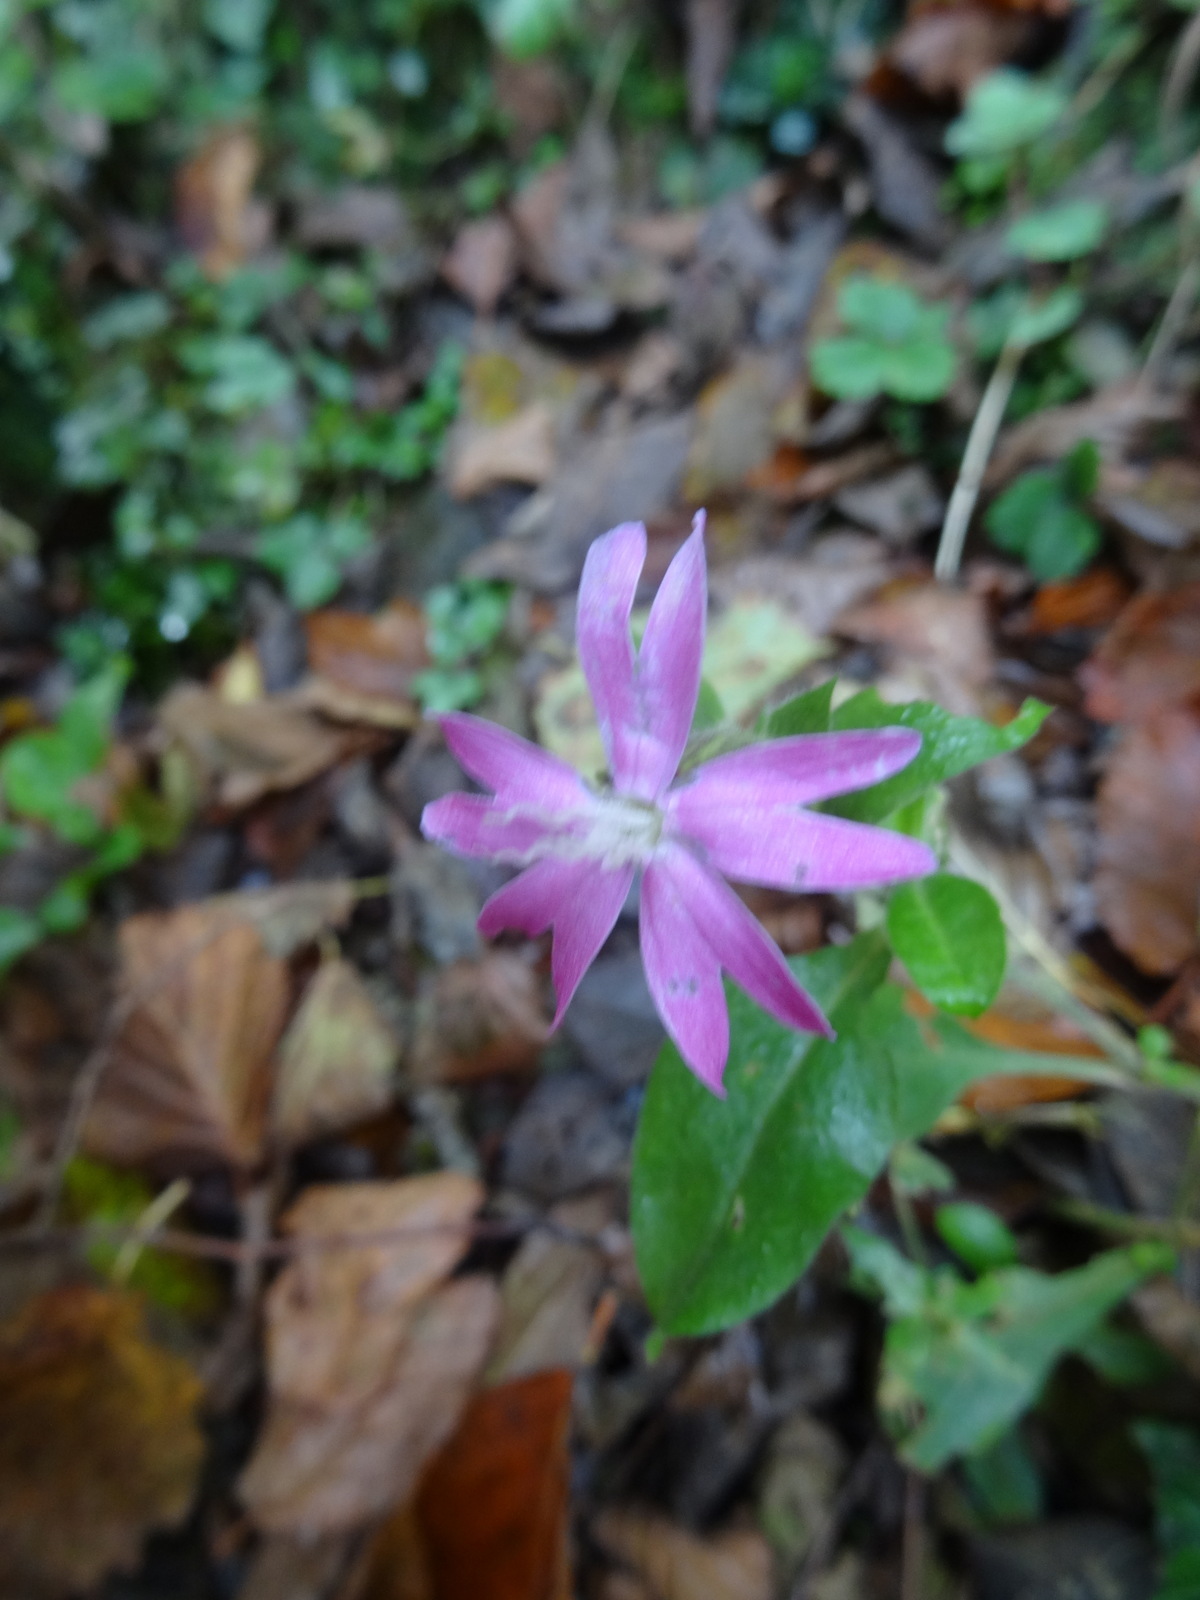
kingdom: Plantae
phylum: Tracheophyta
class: Magnoliopsida
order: Caryophyllales
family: Caryophyllaceae
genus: Silene
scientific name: Silene dioica
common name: Red campion
